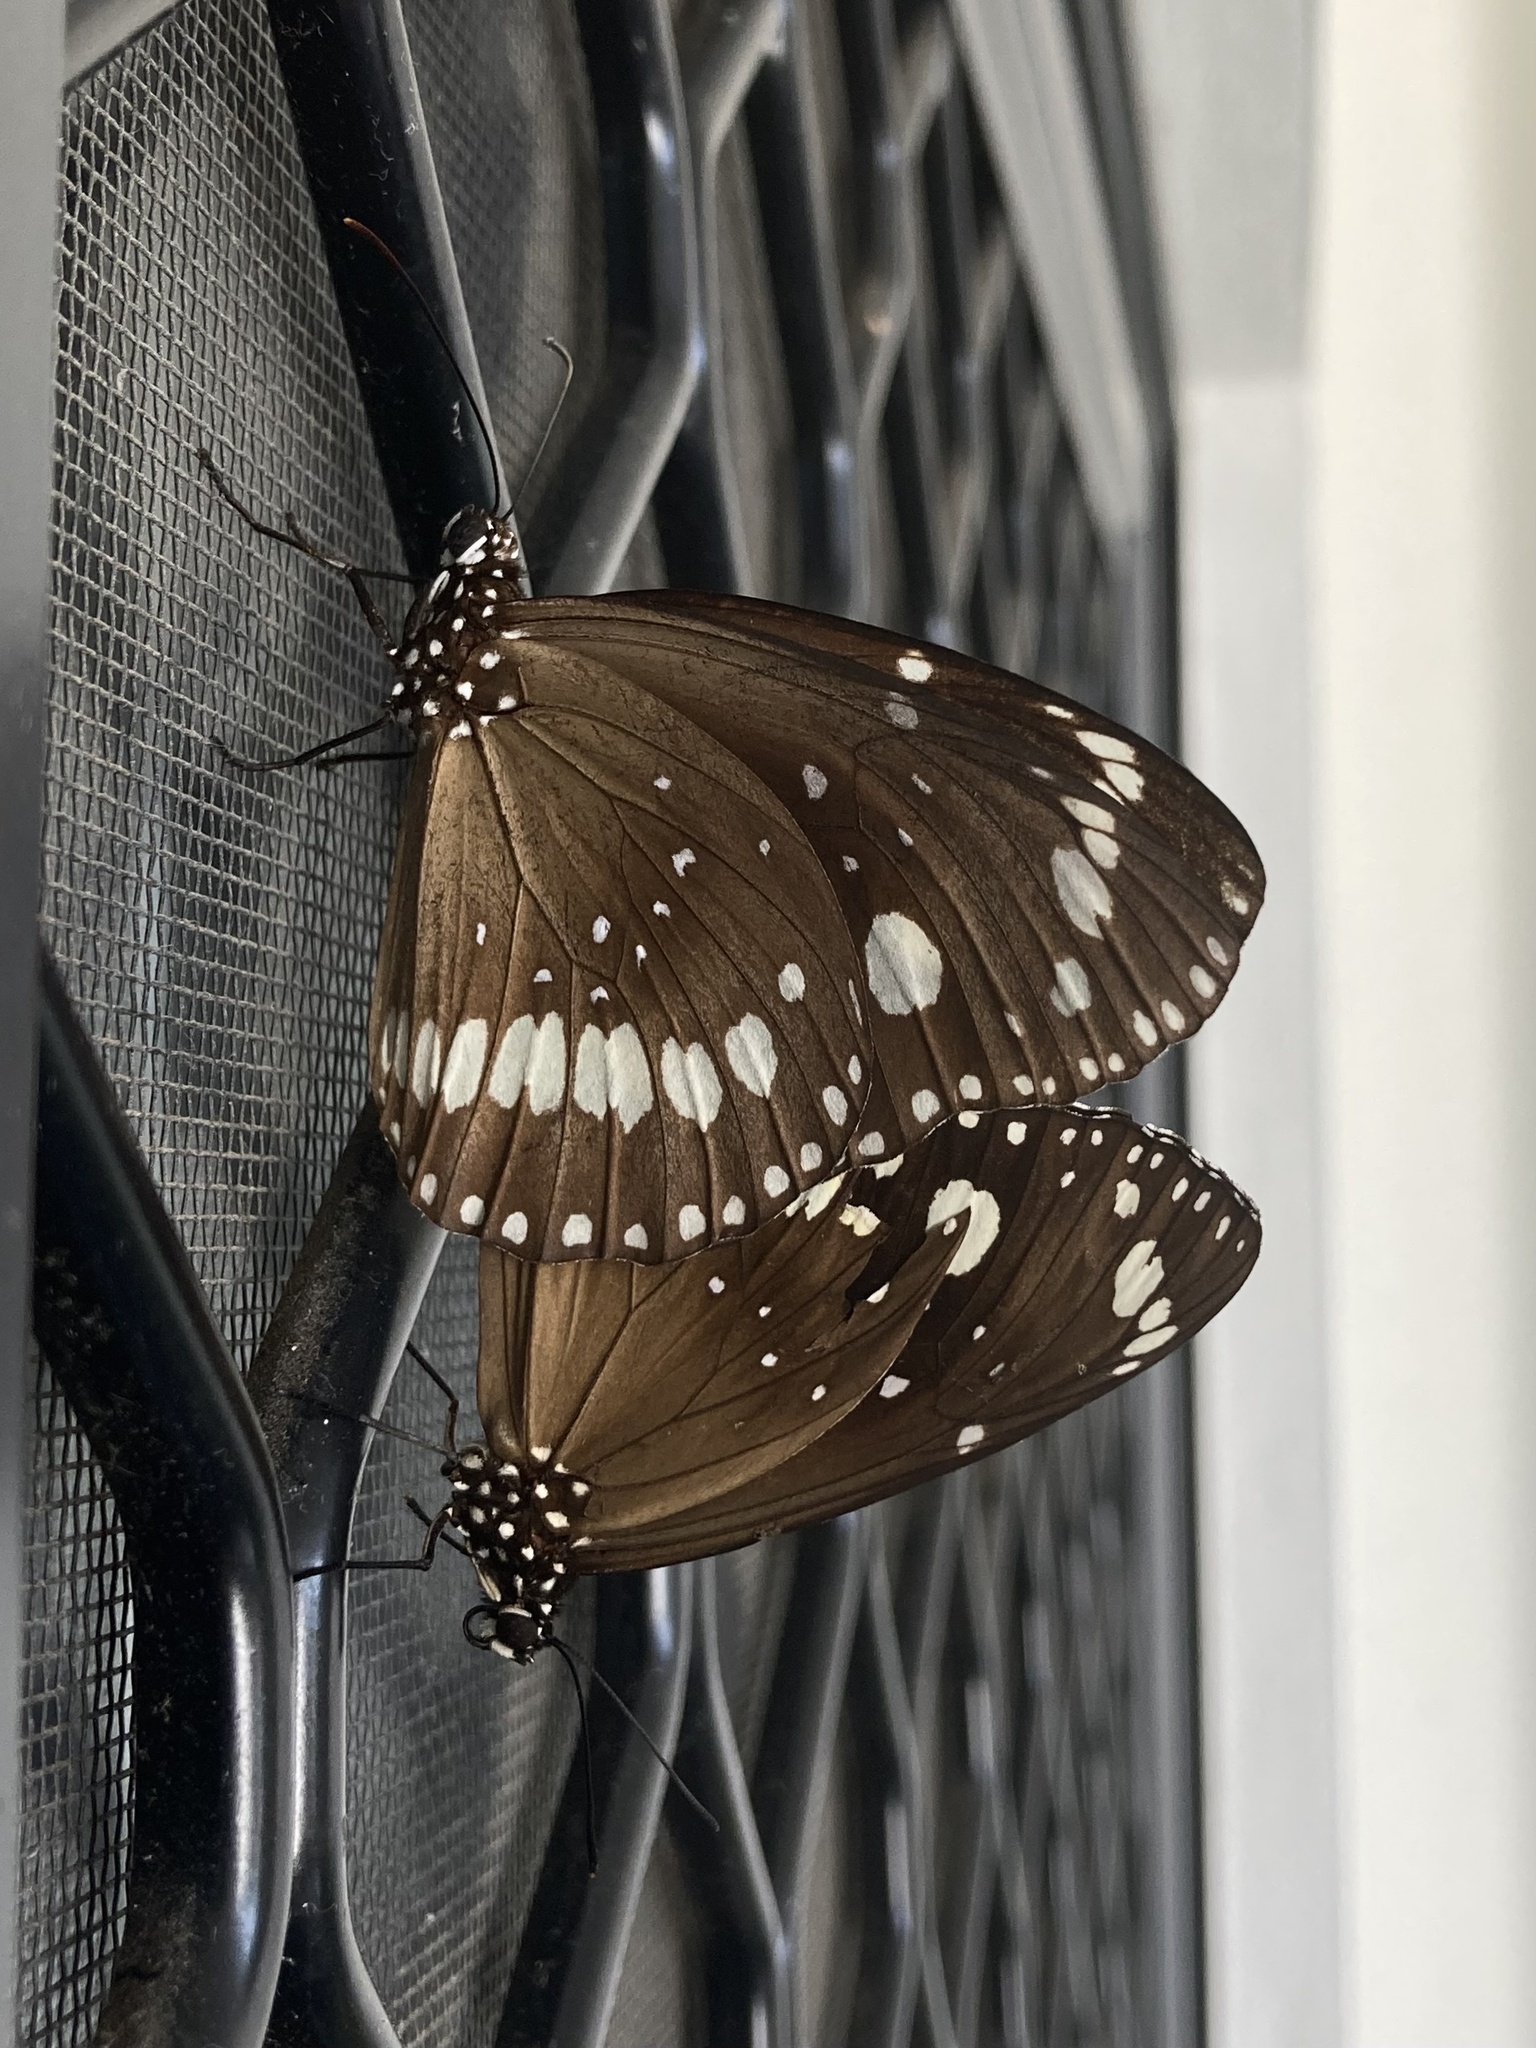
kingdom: Animalia
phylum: Arthropoda
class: Insecta
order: Lepidoptera
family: Nymphalidae
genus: Euploea
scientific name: Euploea core
